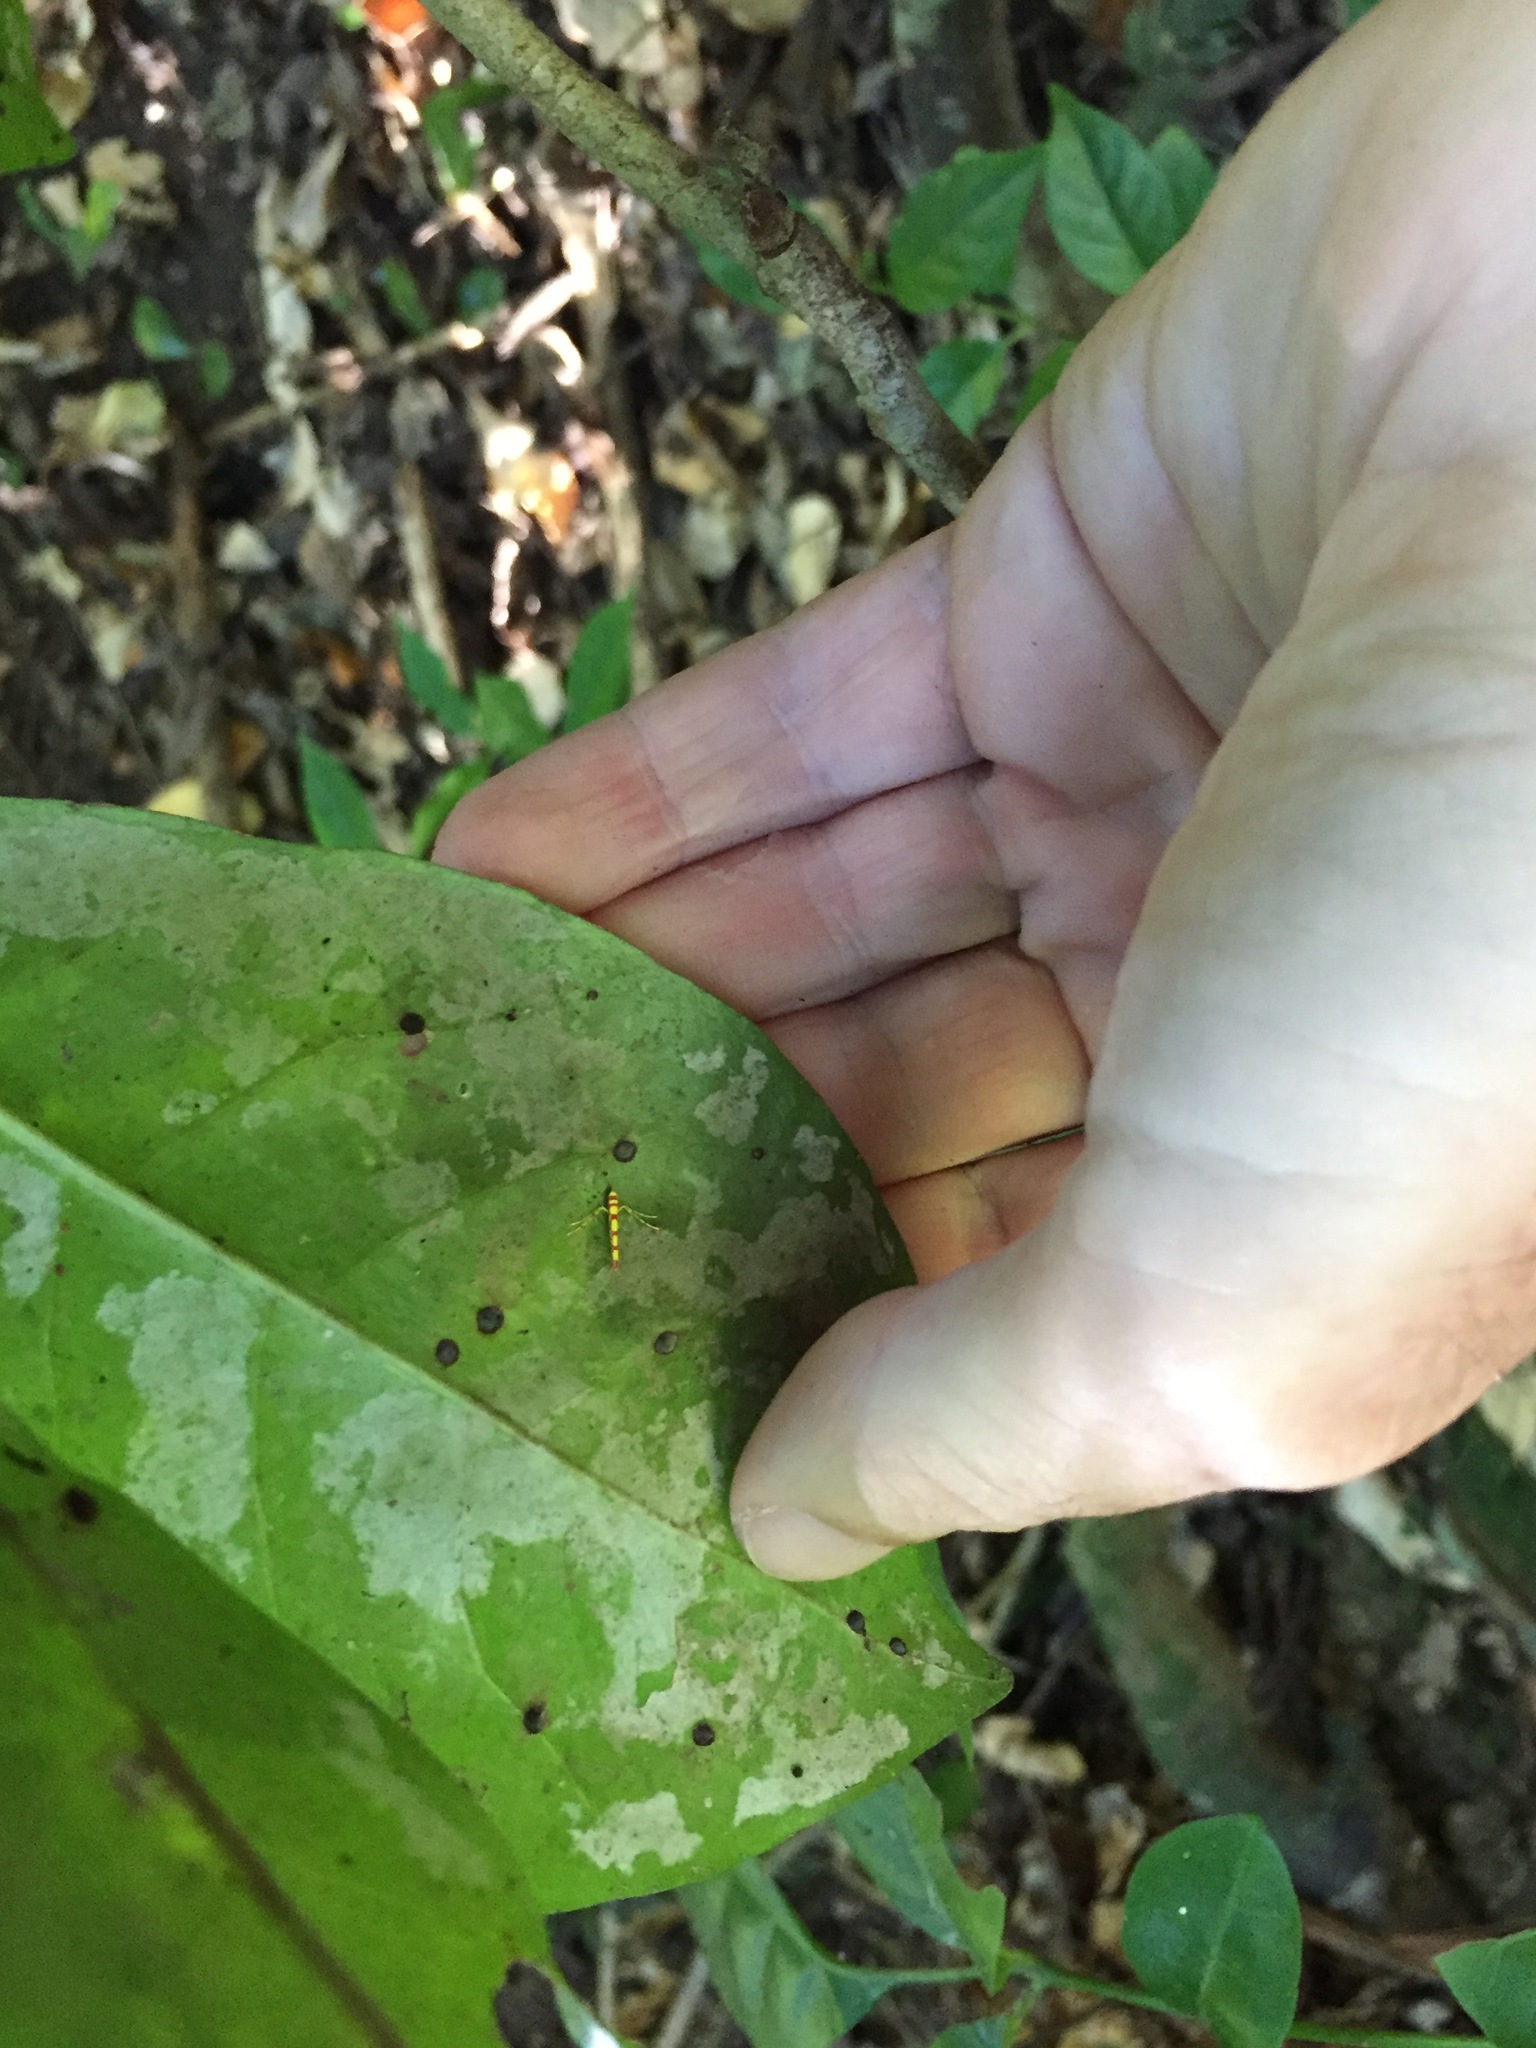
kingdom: Animalia
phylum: Arthropoda
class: Insecta
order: Lepidoptera
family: Gracillariidae
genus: Macarostola
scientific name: Macarostola miniella
